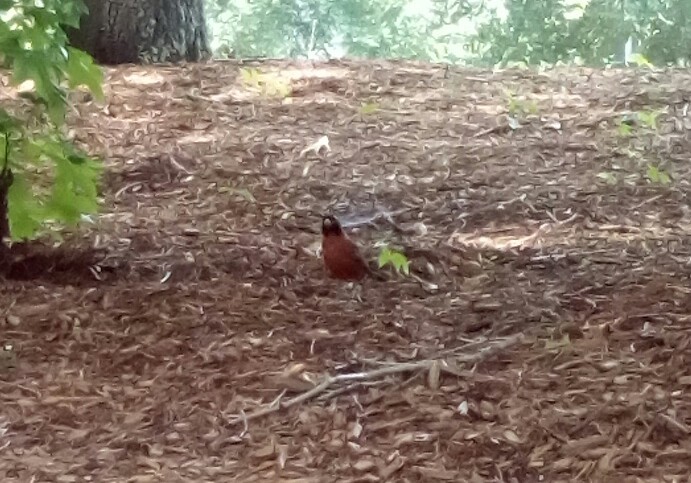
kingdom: Animalia
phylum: Chordata
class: Aves
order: Passeriformes
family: Turdidae
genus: Turdus
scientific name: Turdus migratorius
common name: American robin
